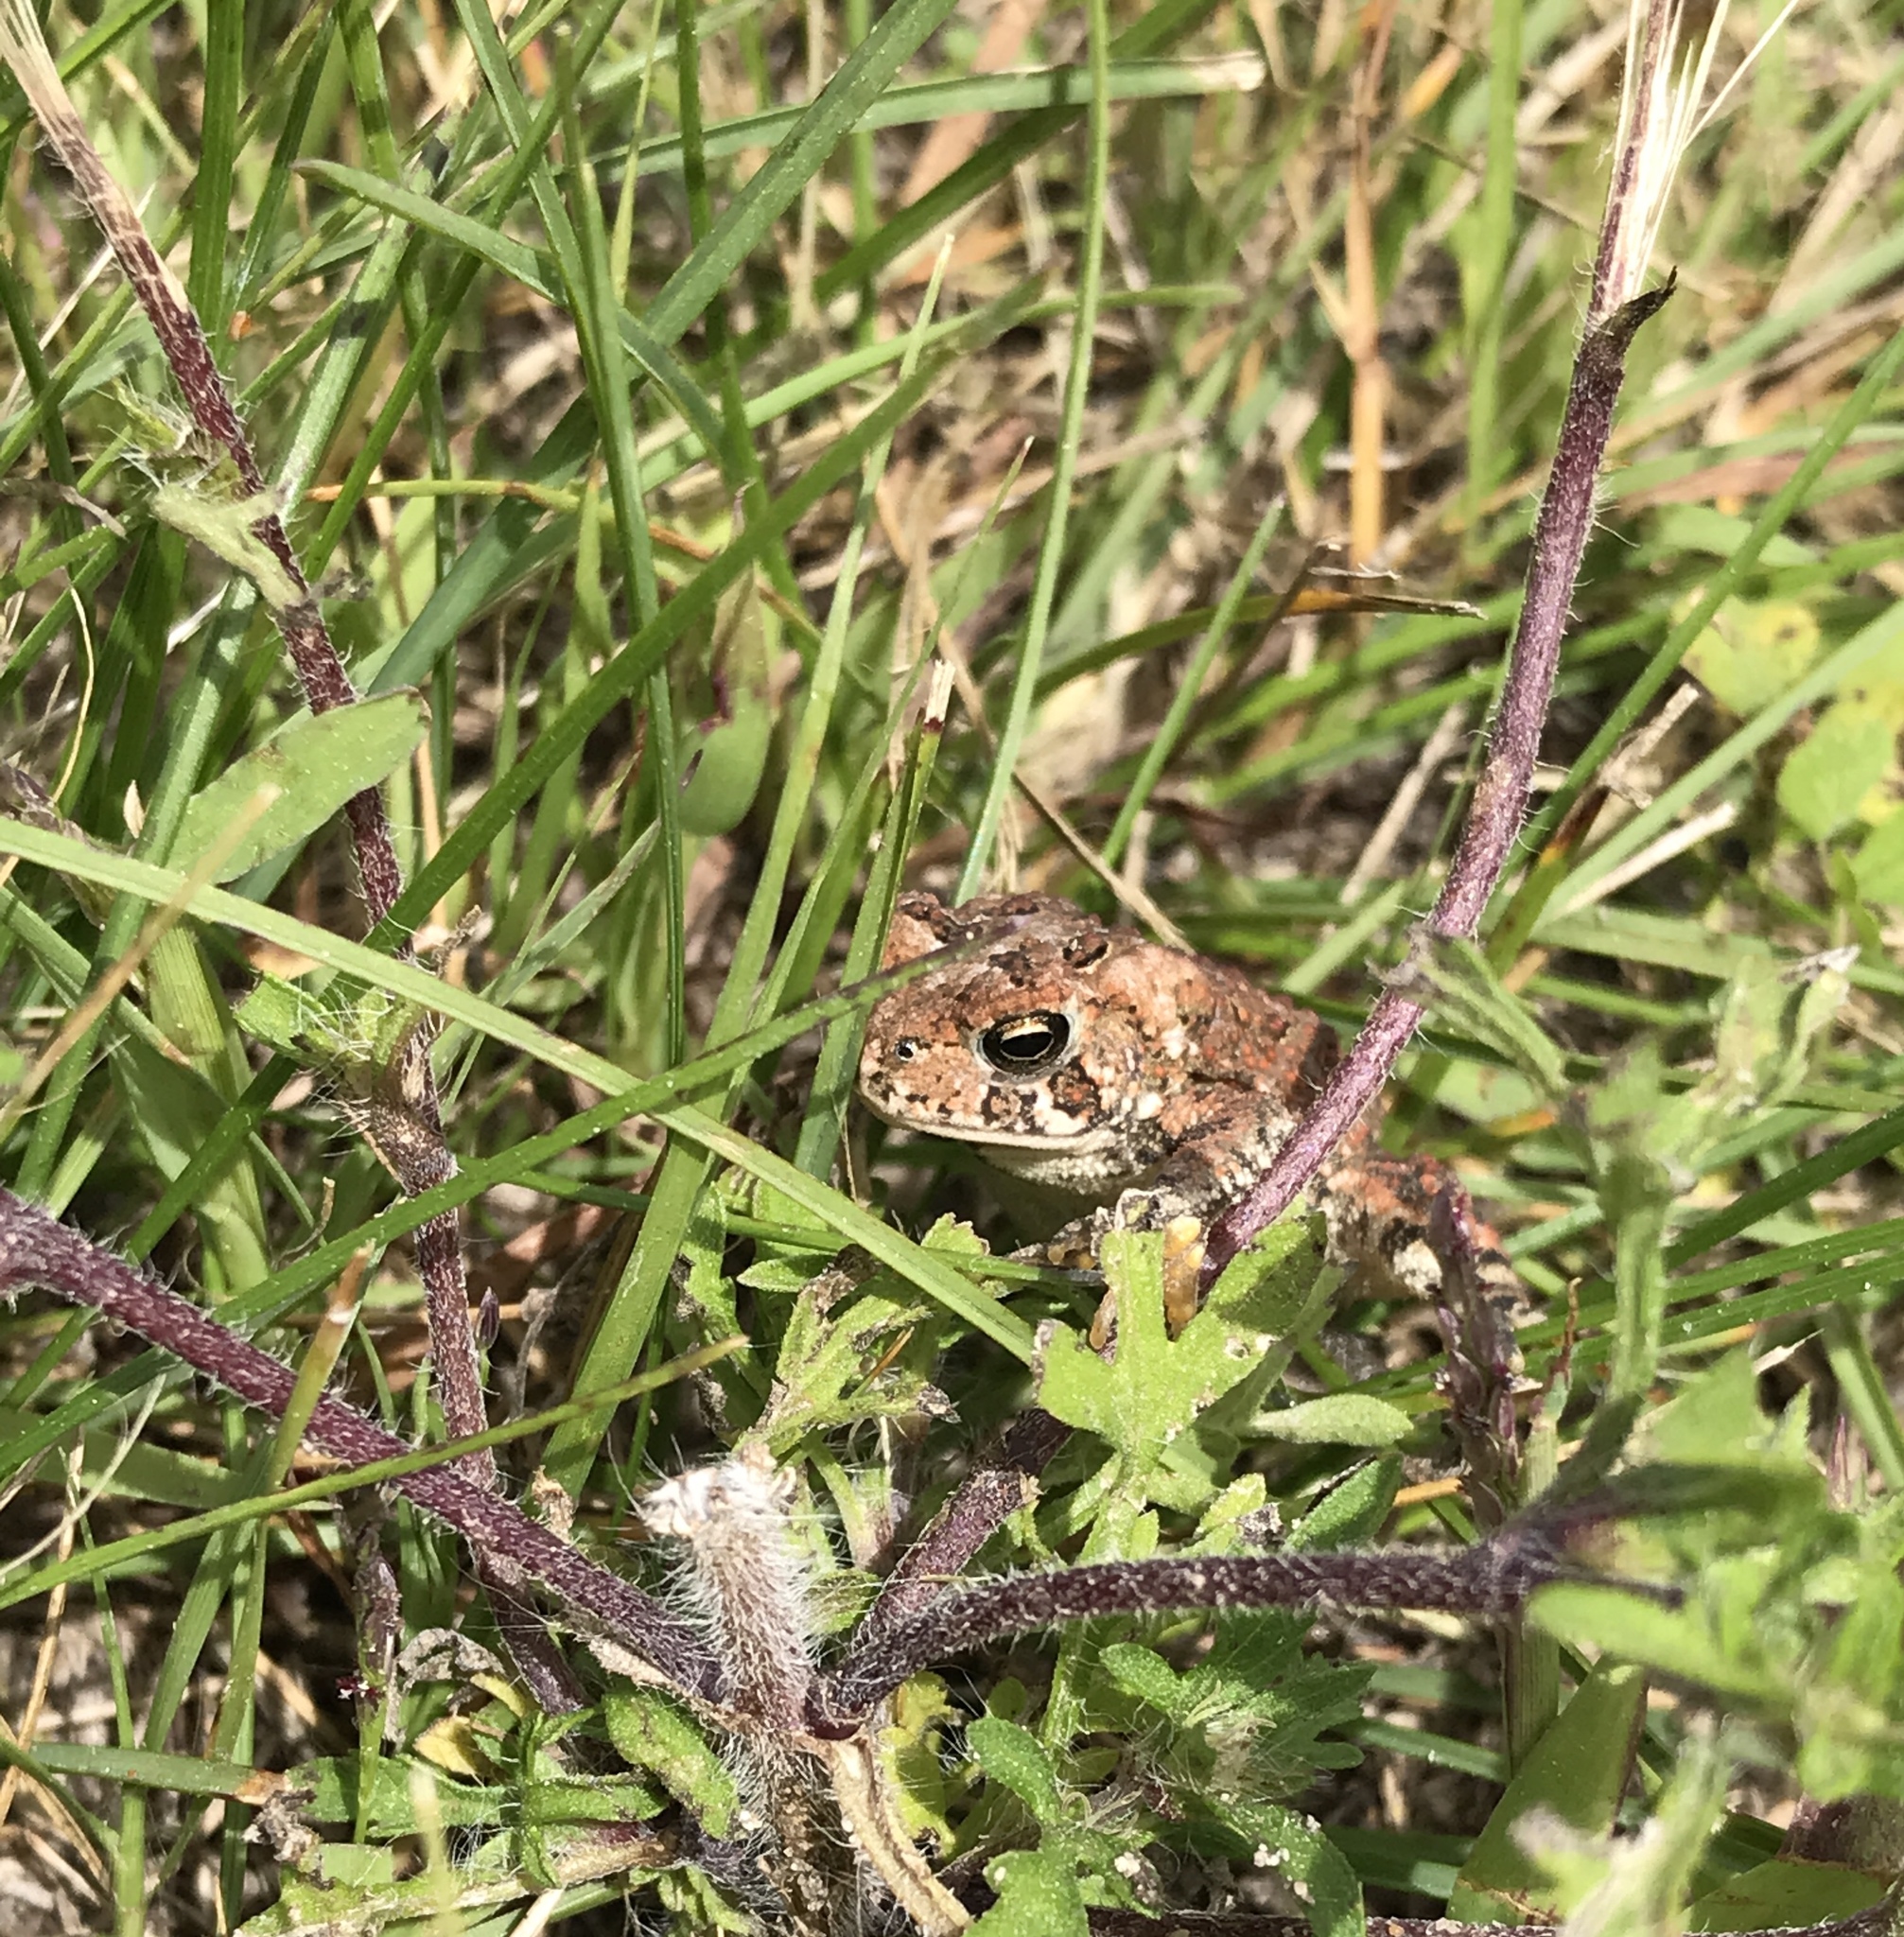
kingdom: Animalia
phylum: Chordata
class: Amphibia
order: Anura
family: Bufonidae
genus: Anaxyrus
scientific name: Anaxyrus americanus
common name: American toad
